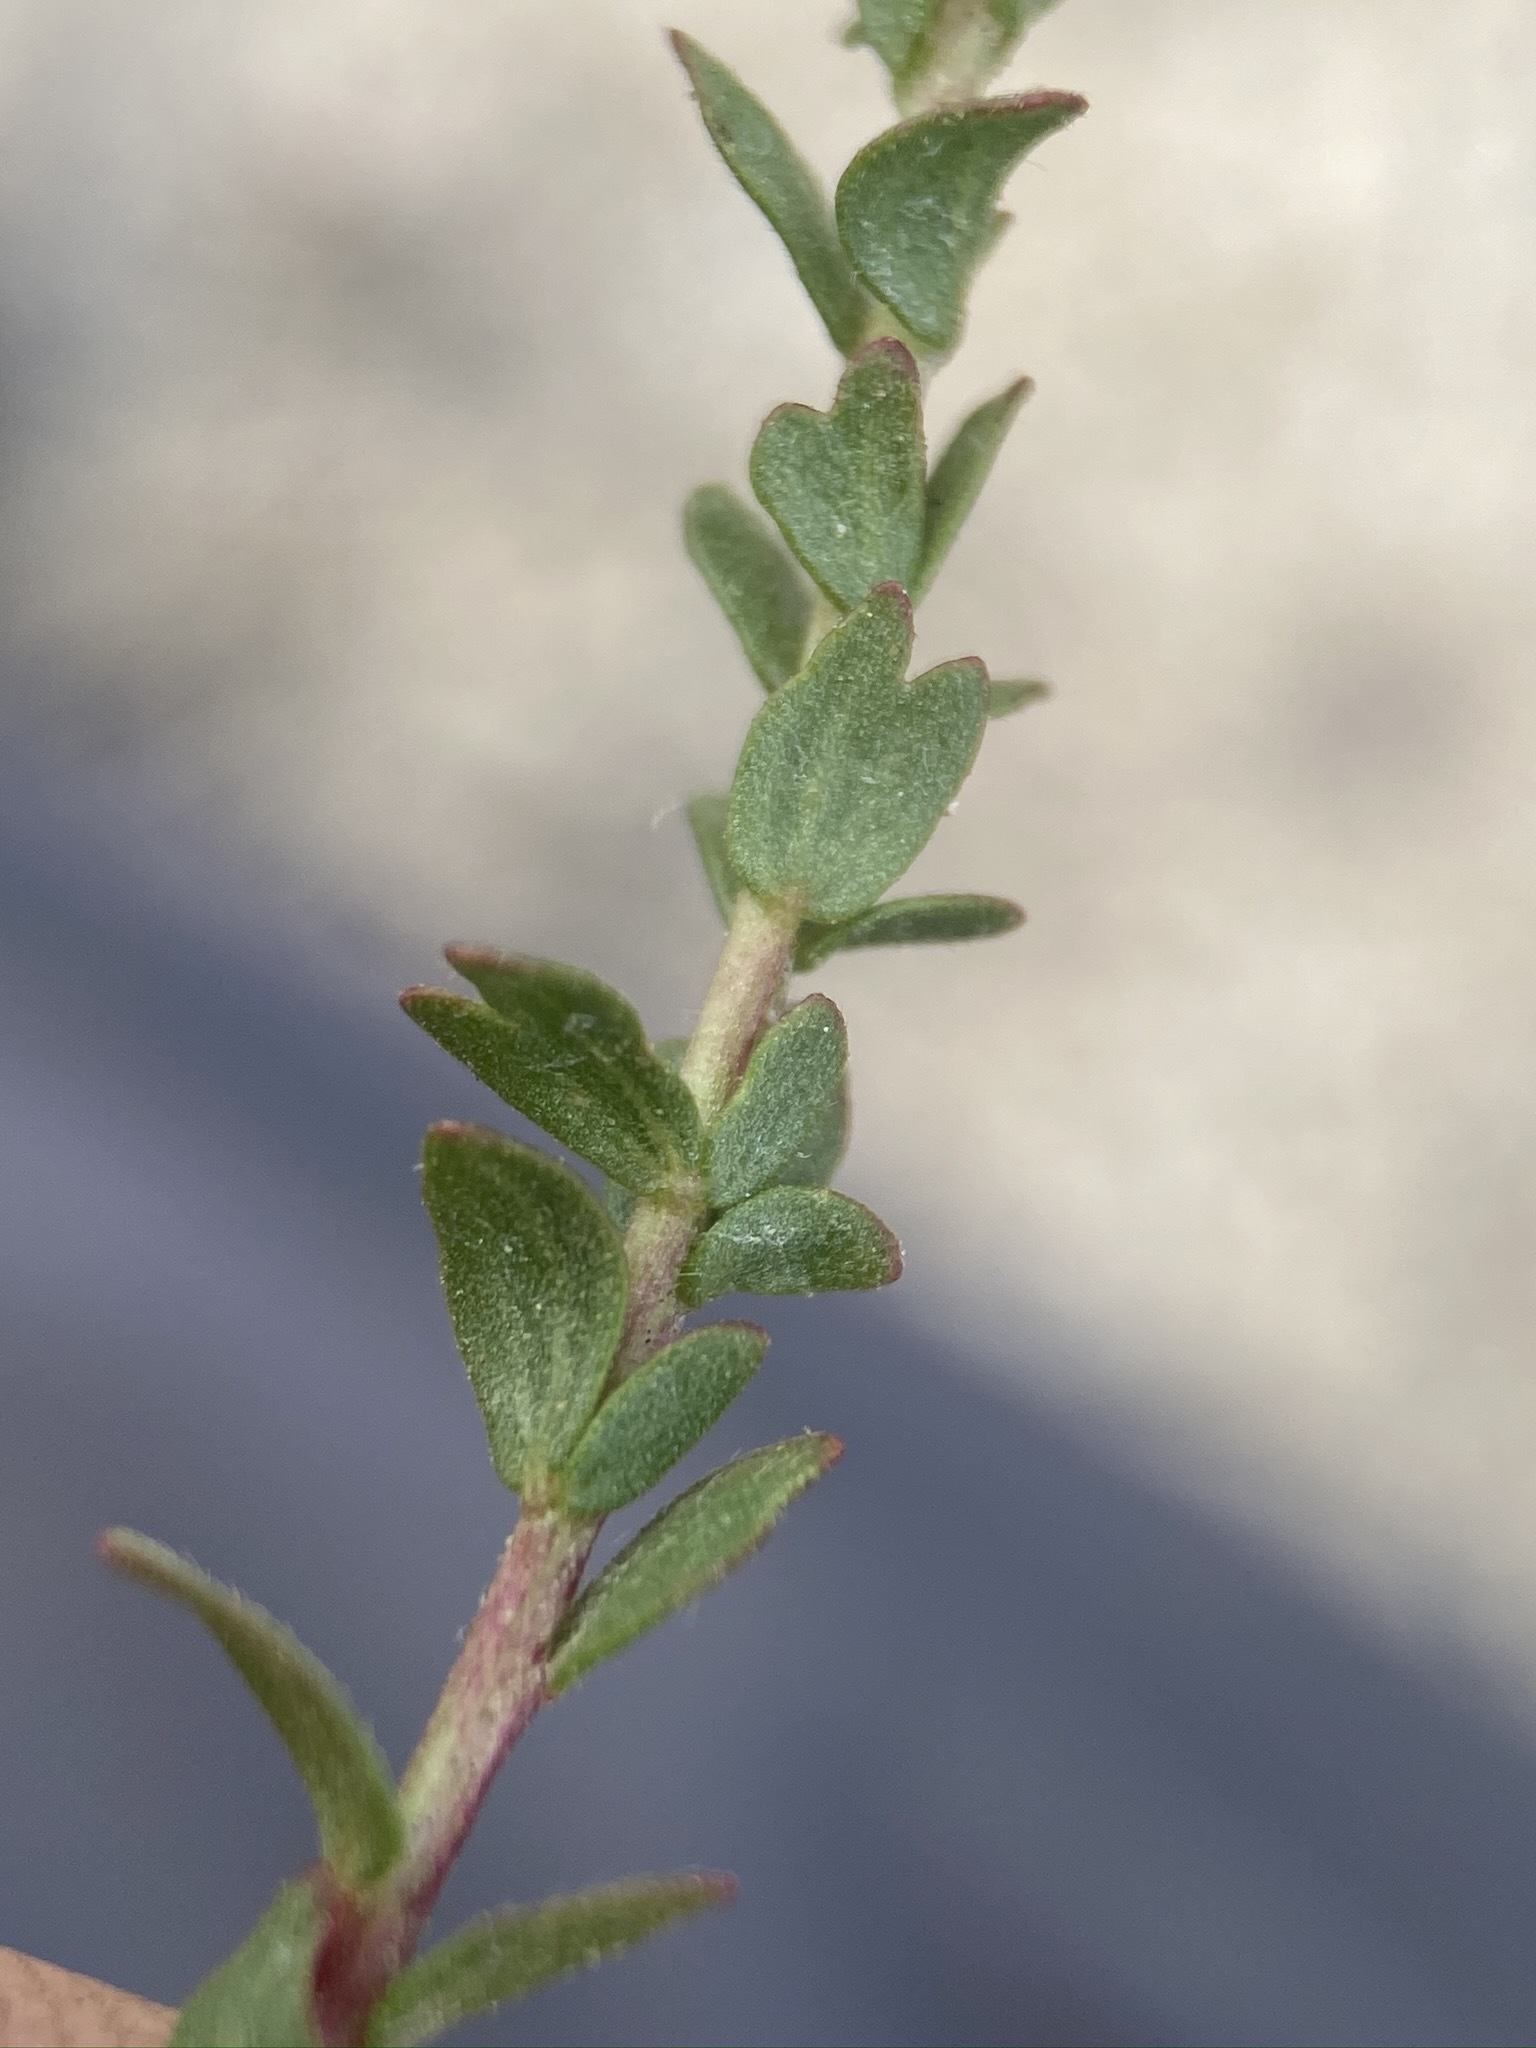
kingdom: Plantae
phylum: Tracheophyta
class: Magnoliopsida
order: Rosales
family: Rosaceae
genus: Potentilla
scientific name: Potentilla sabulosa
